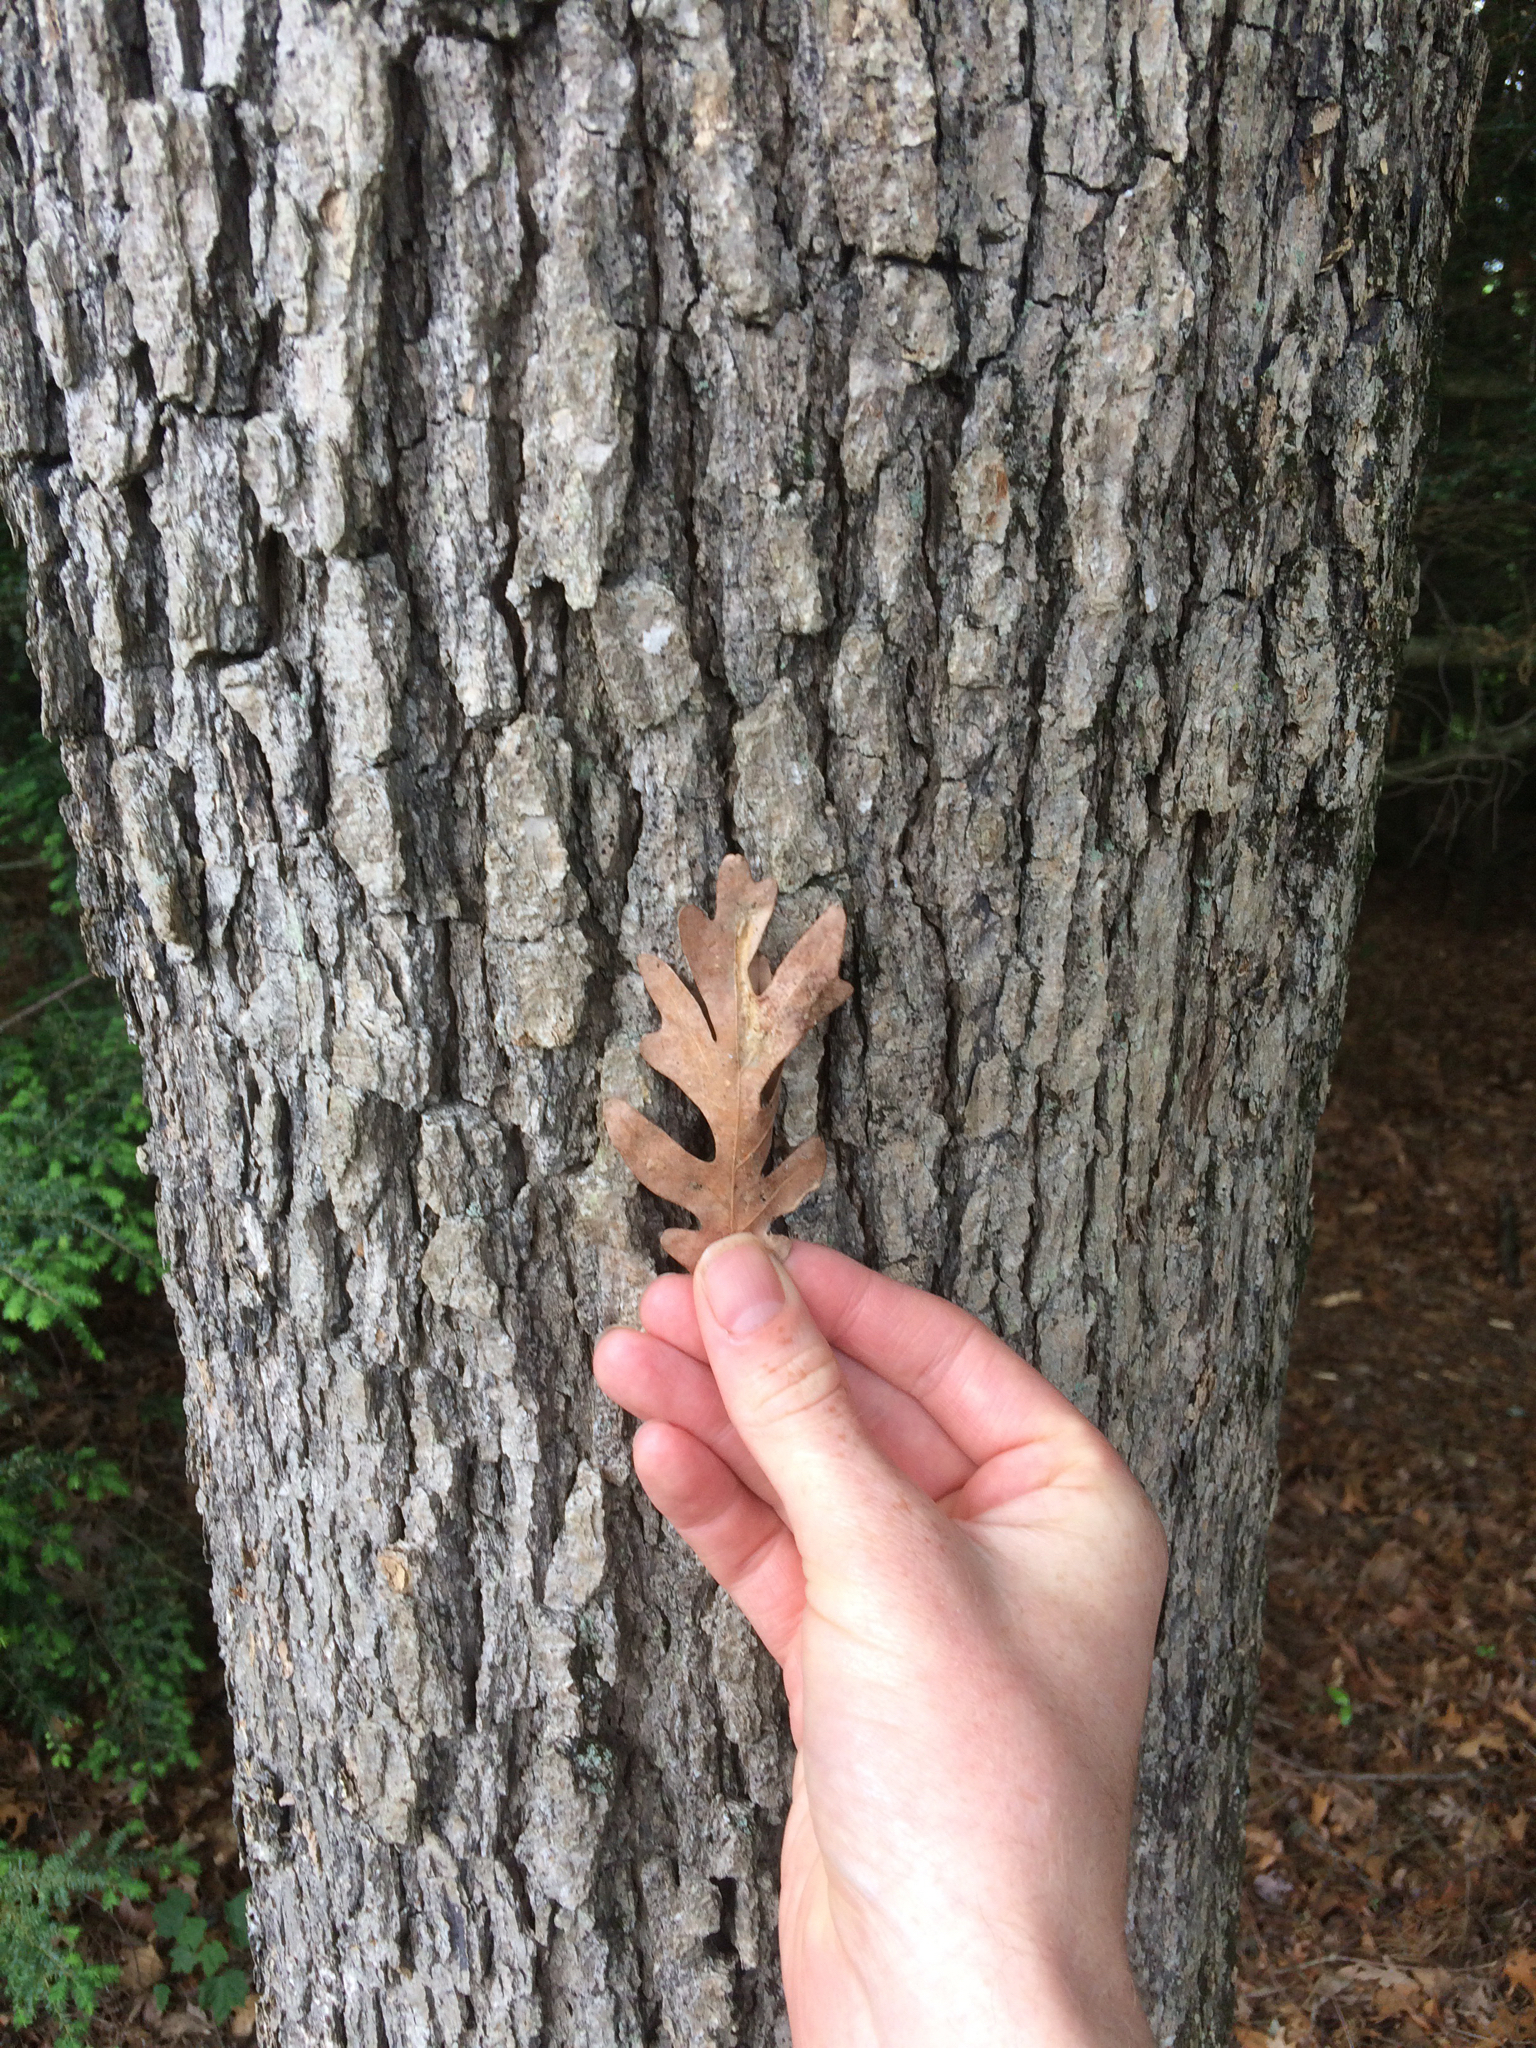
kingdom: Plantae
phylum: Tracheophyta
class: Magnoliopsida
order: Fagales
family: Fagaceae
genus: Quercus
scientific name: Quercus alba
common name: White oak
